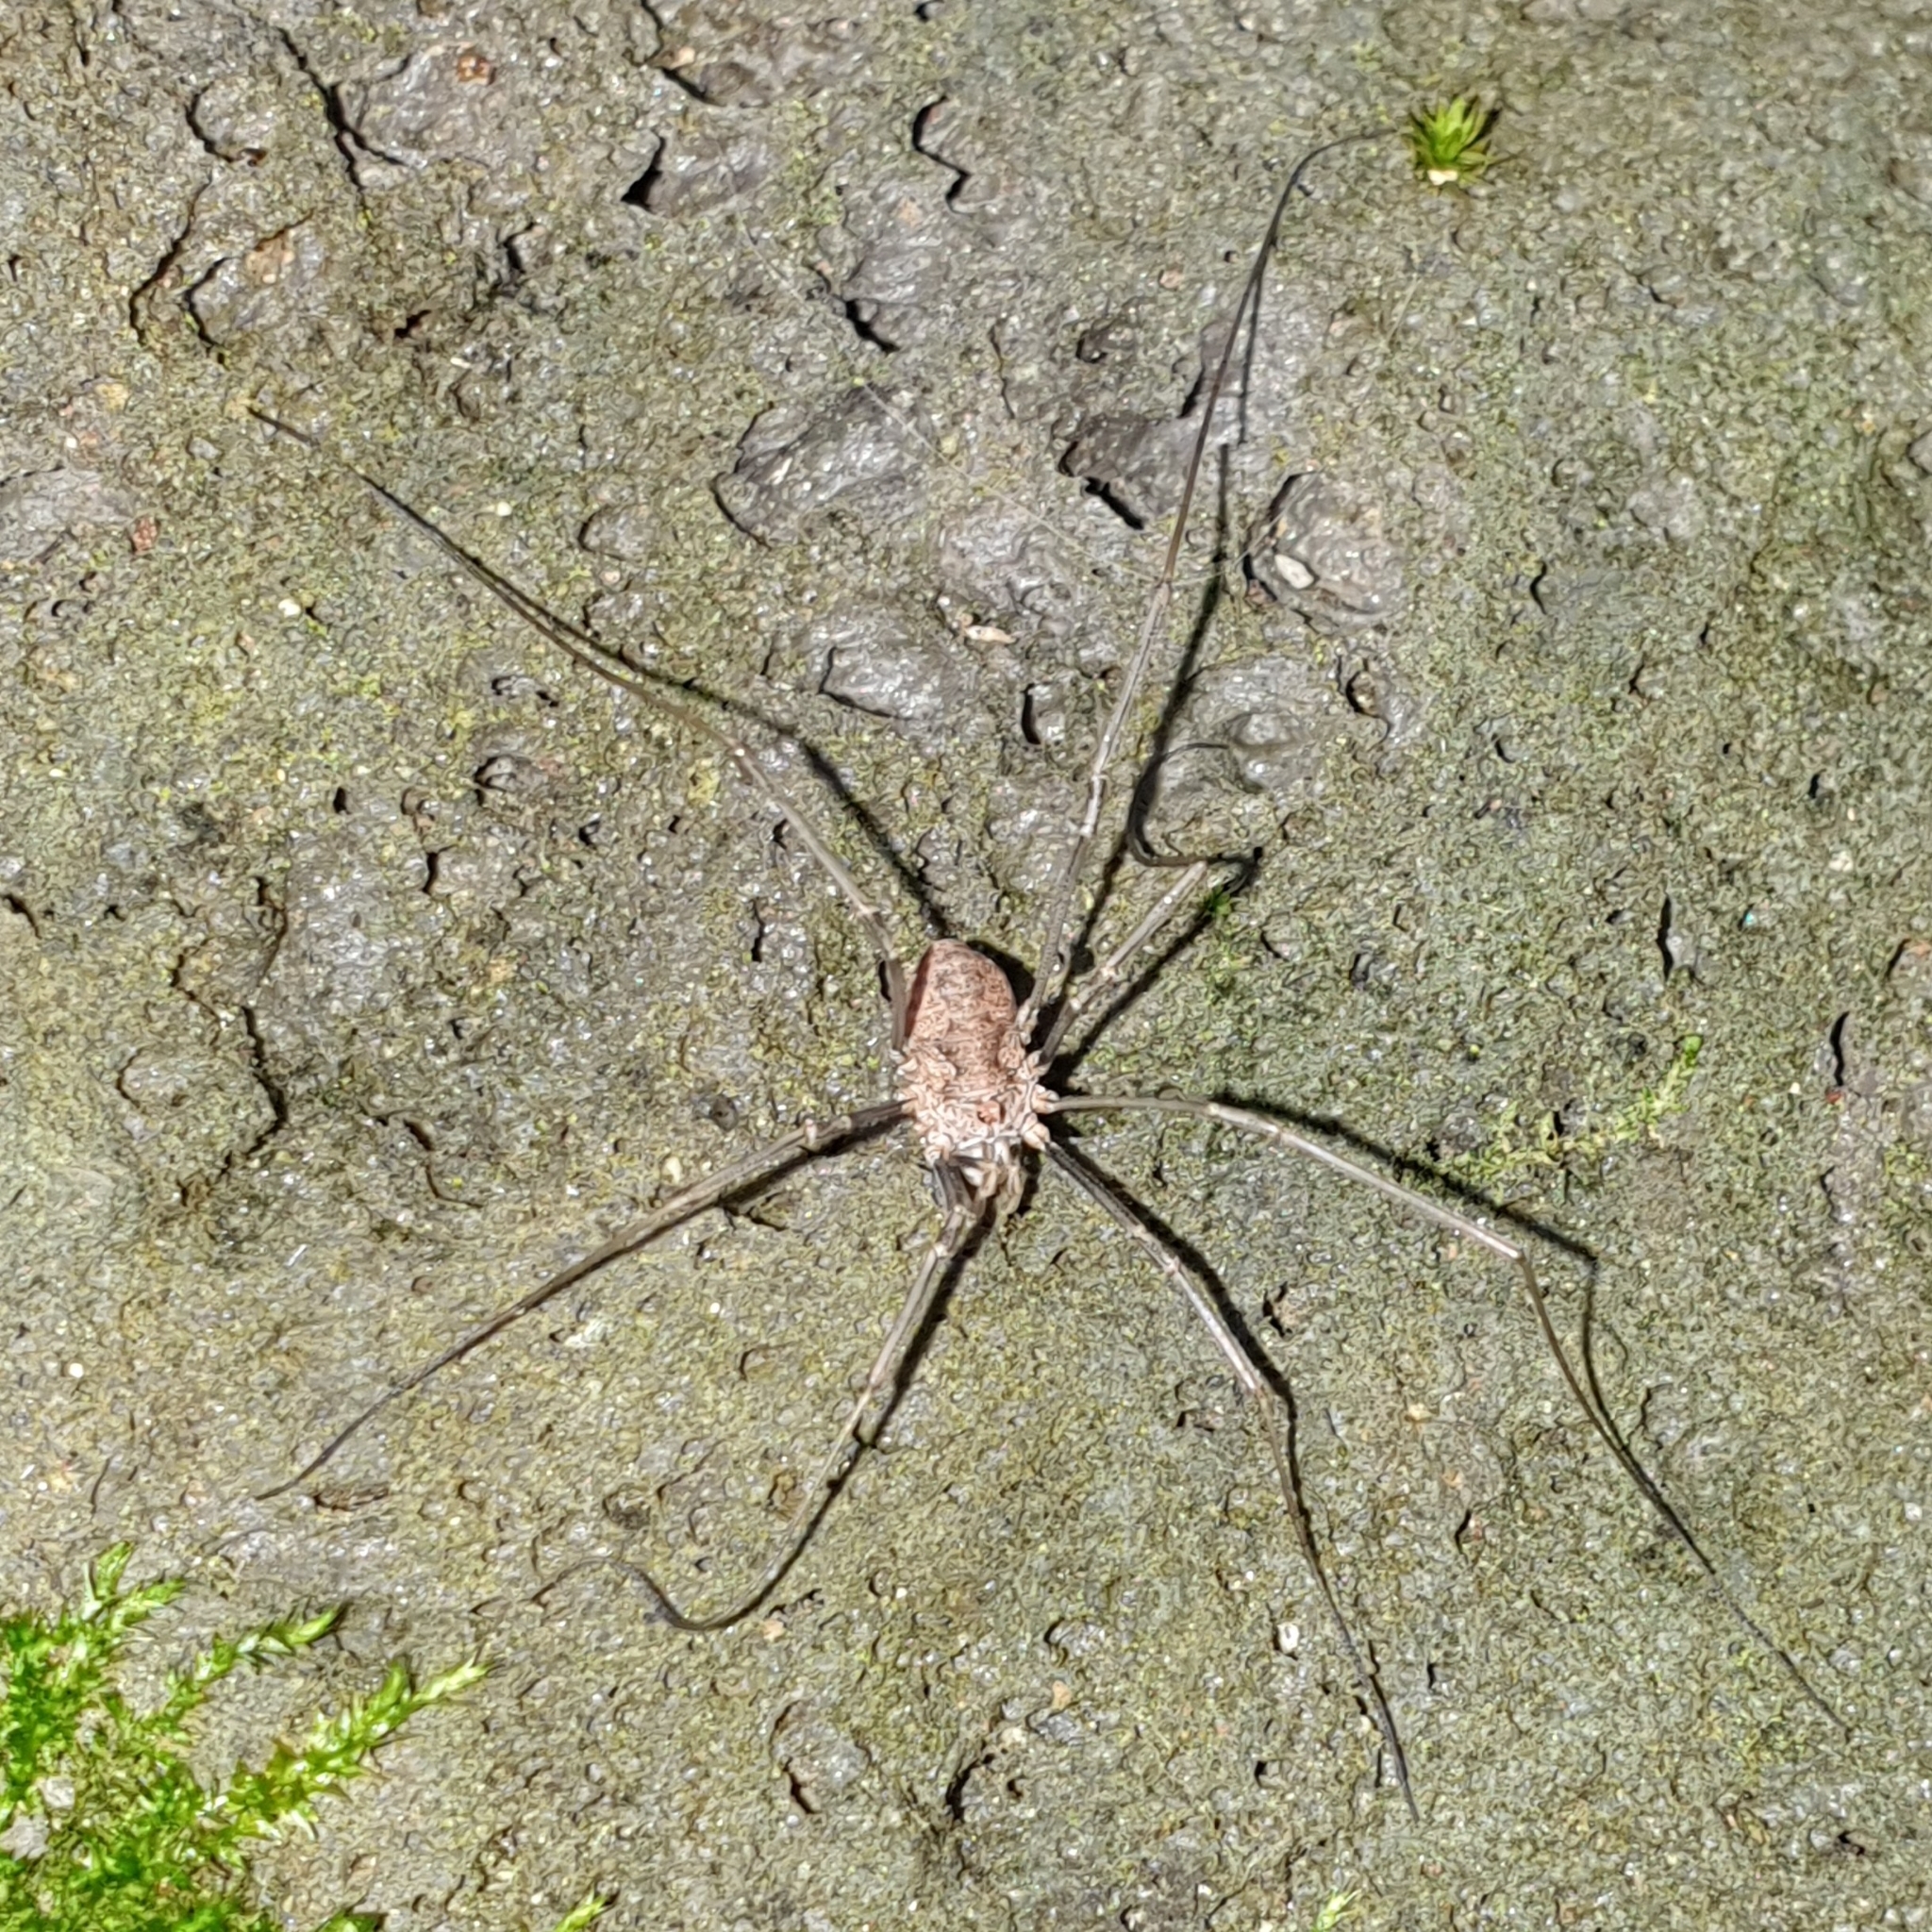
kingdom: Animalia
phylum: Arthropoda
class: Arachnida
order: Opiliones
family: Phalangiidae
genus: Phalangium
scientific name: Phalangium opilio
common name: Daddy longleg
